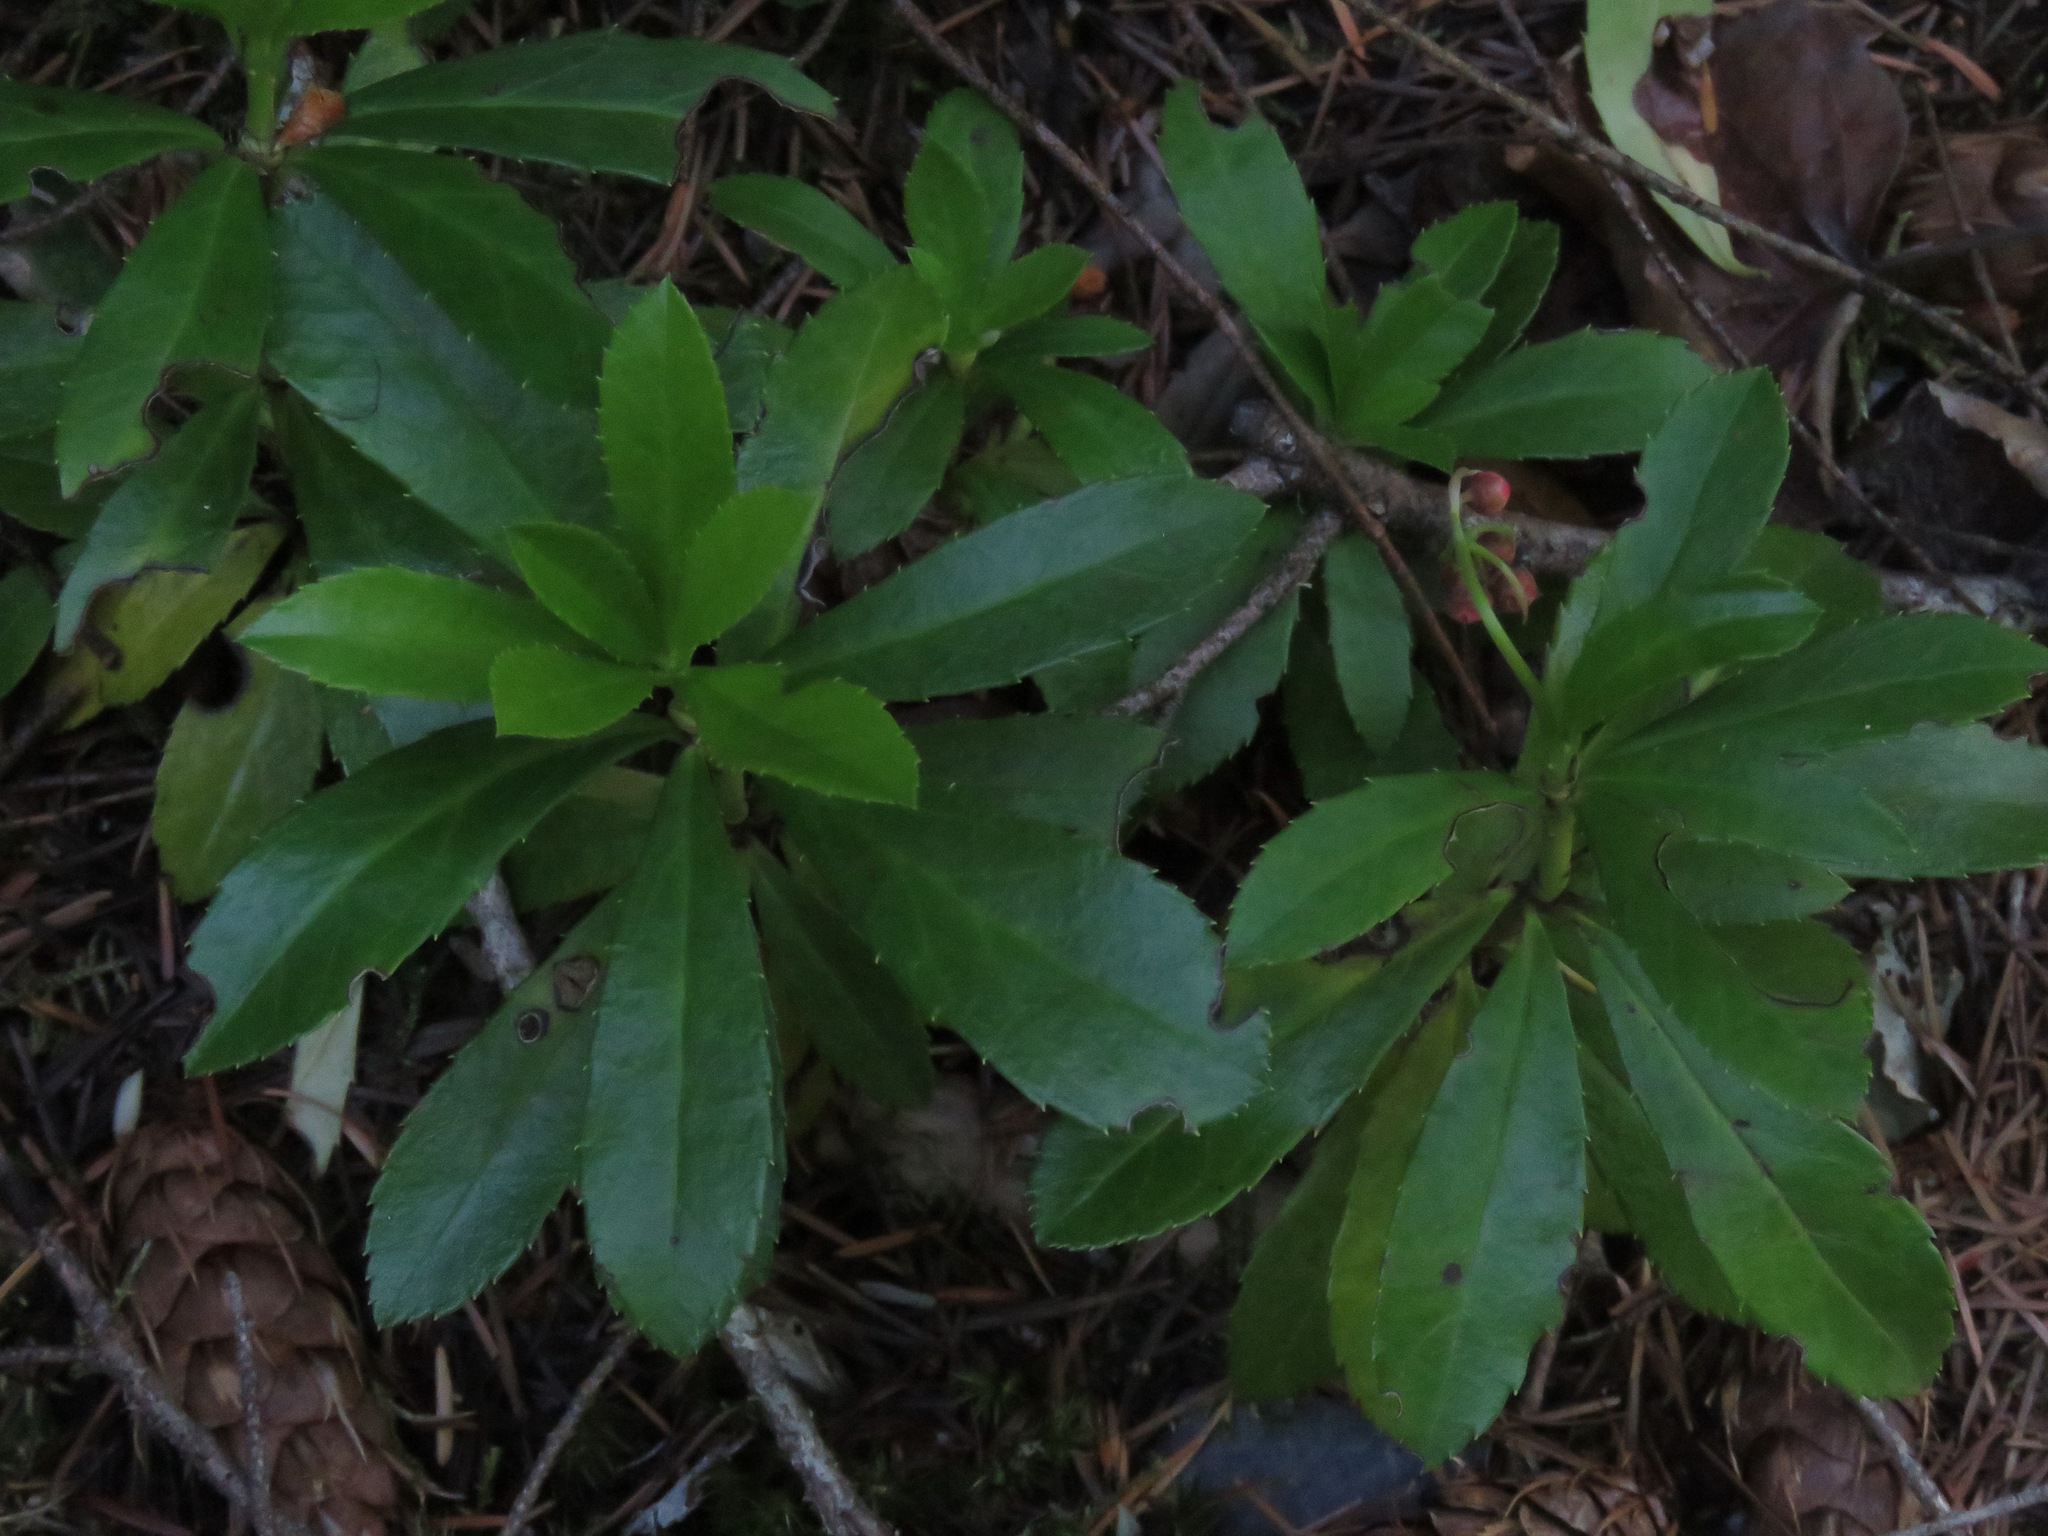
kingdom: Plantae
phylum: Tracheophyta
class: Magnoliopsida
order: Ericales
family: Ericaceae
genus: Chimaphila
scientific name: Chimaphila umbellata
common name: Pipsissewa
